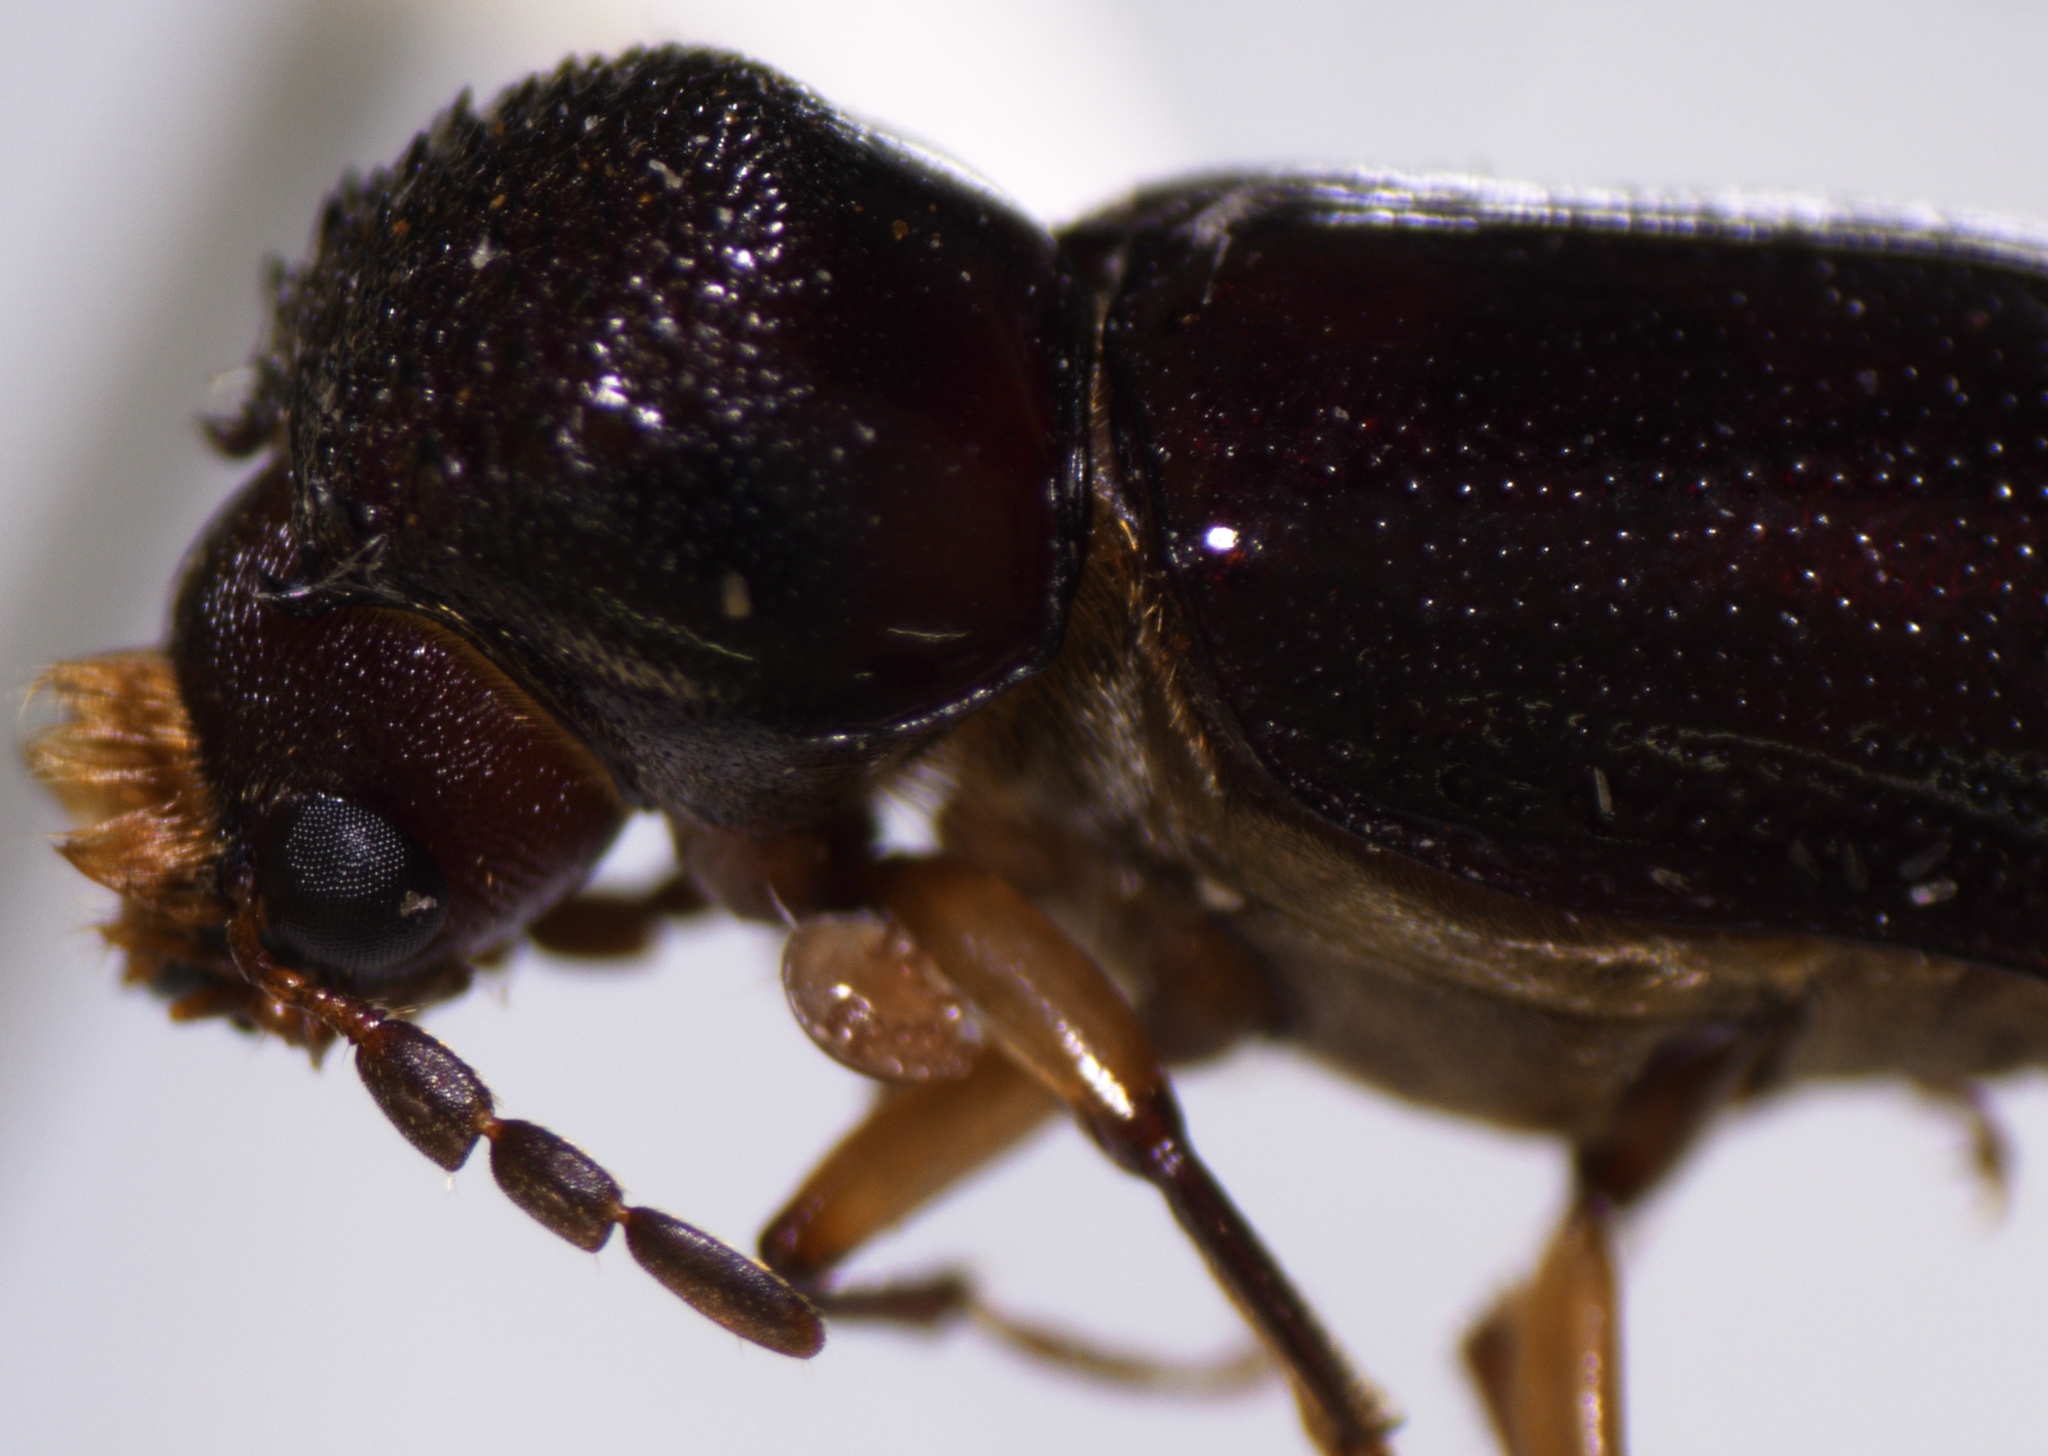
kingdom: Animalia
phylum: Arthropoda
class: Insecta
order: Coleoptera
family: Bostrichidae
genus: Xylothrips
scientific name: Xylothrips religiosus
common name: Powderpost beetle
